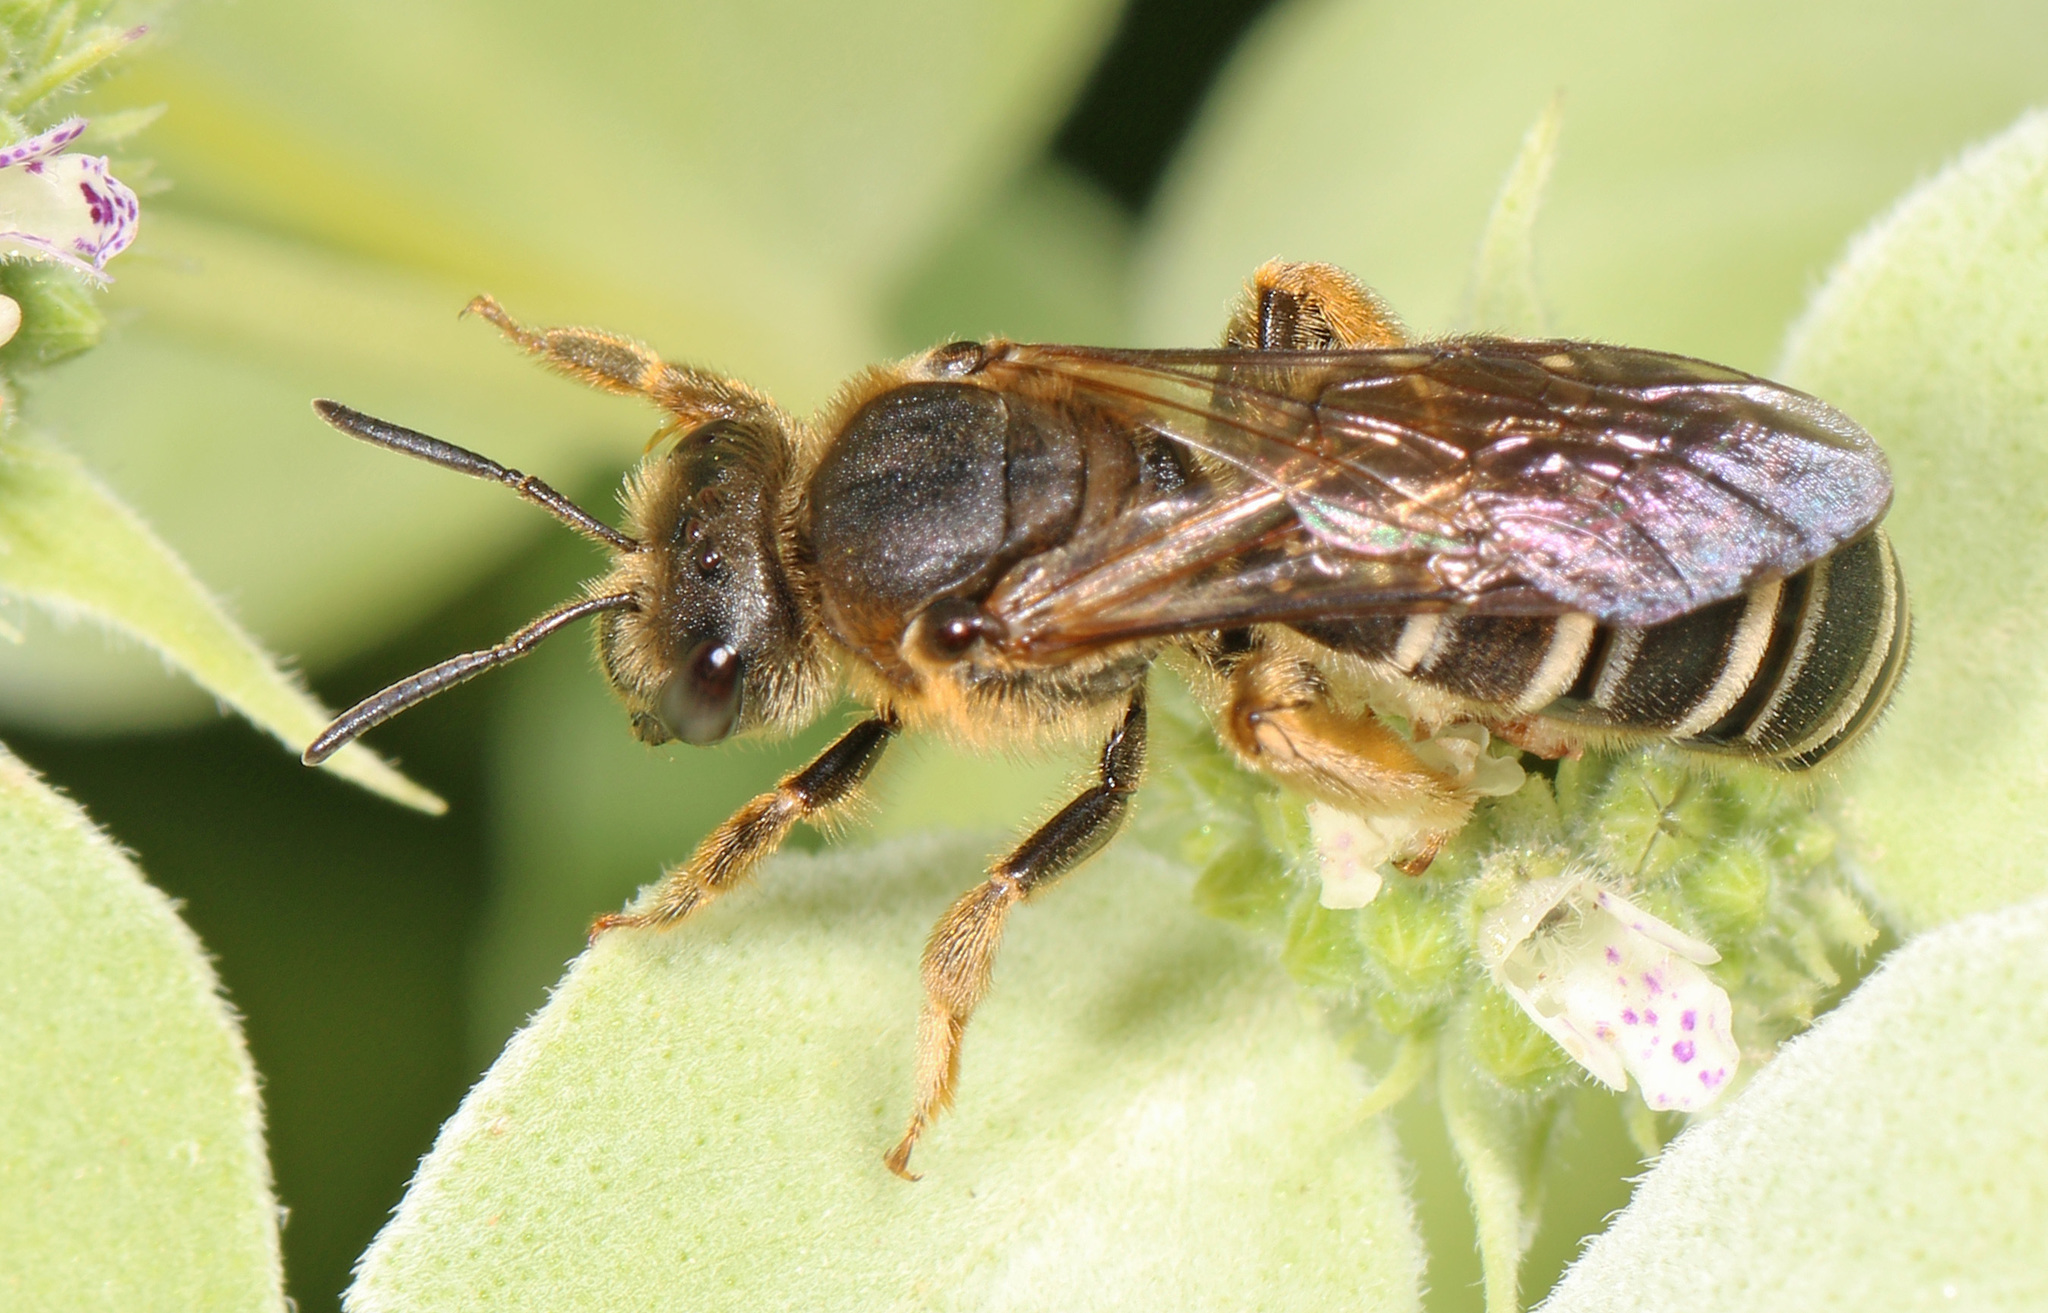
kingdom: Animalia
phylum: Arthropoda
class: Insecta
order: Hymenoptera
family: Halictidae
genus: Halictus
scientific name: Halictus rubicundus
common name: Orange-legged furrow bee
